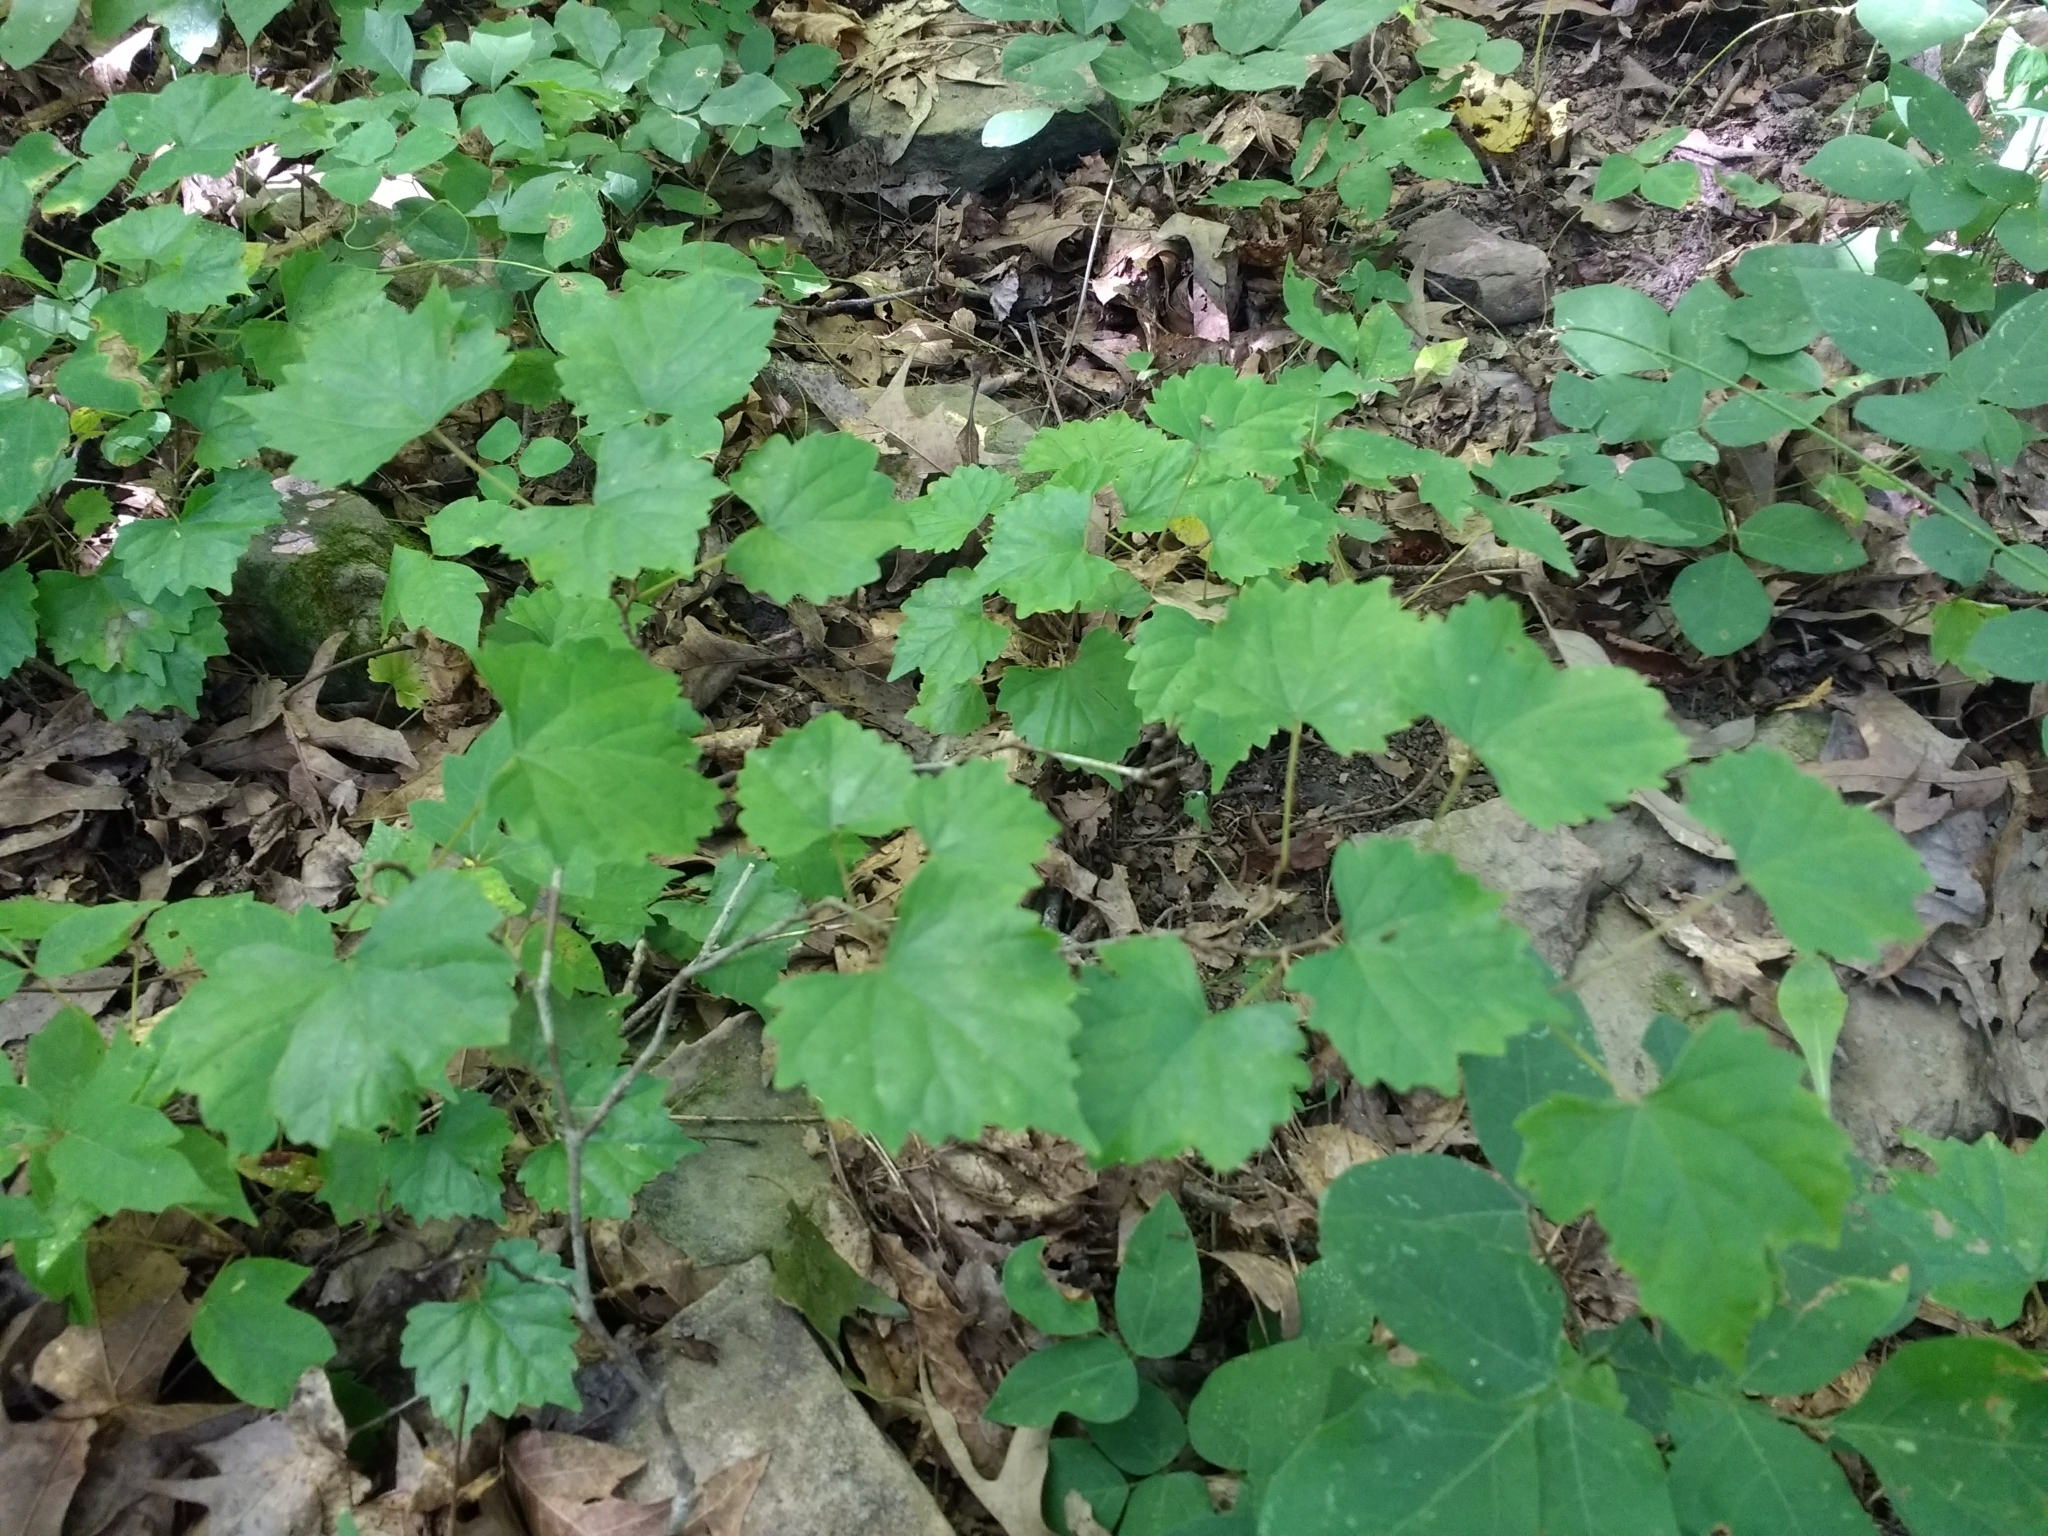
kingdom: Plantae
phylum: Tracheophyta
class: Magnoliopsida
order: Vitales
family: Vitaceae
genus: Vitis
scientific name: Vitis rotundifolia
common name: Muscadine grape
